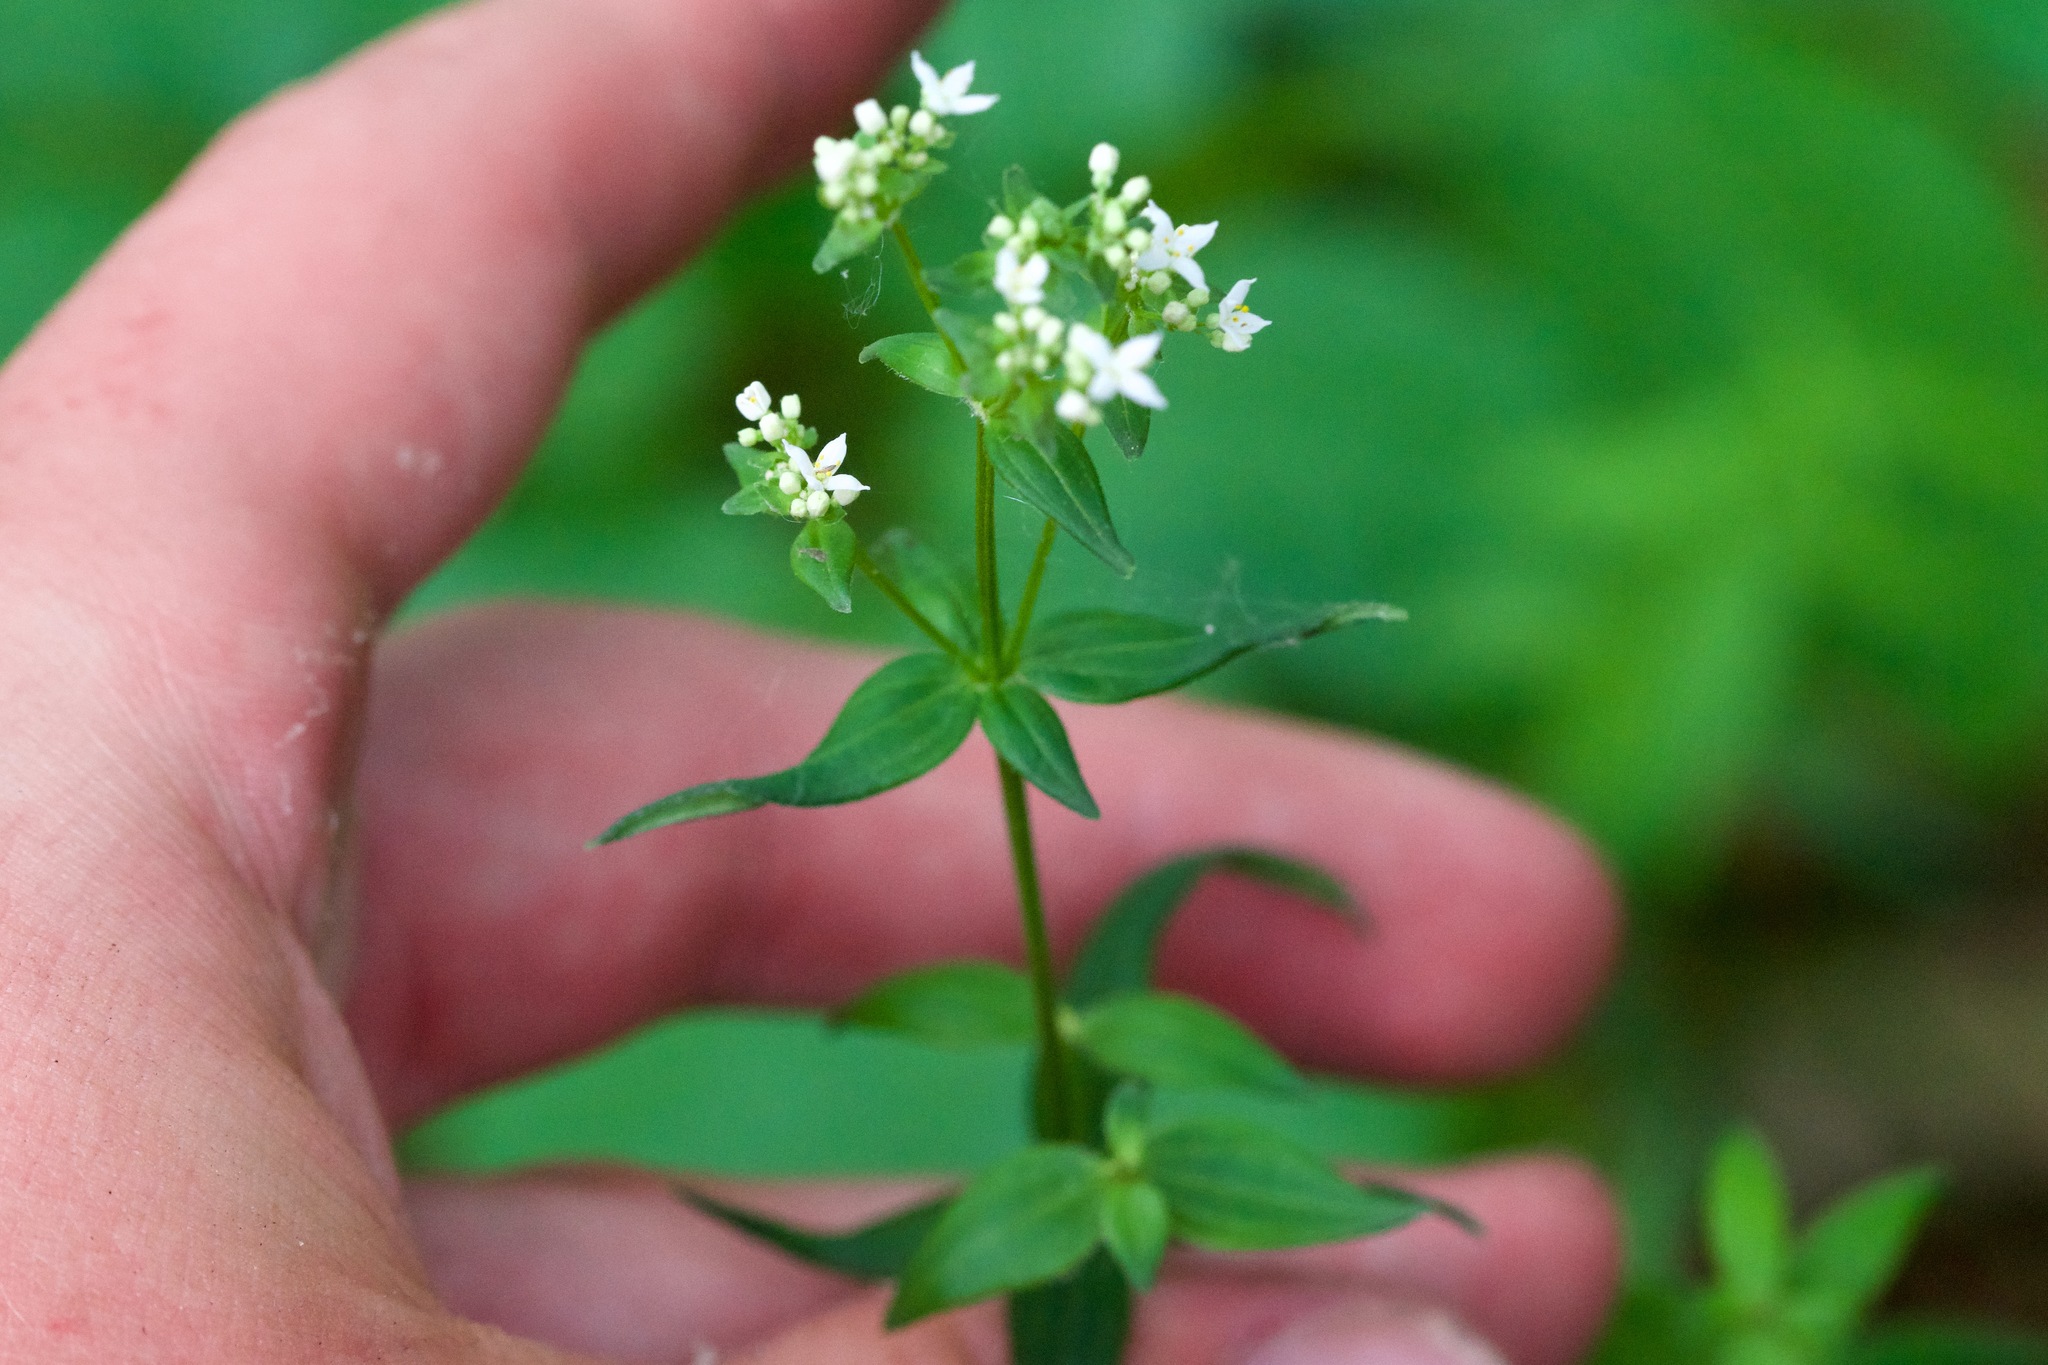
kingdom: Plantae
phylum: Tracheophyta
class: Magnoliopsida
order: Gentianales
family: Rubiaceae
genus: Galium
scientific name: Galium boreale
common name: Northern bedstraw
